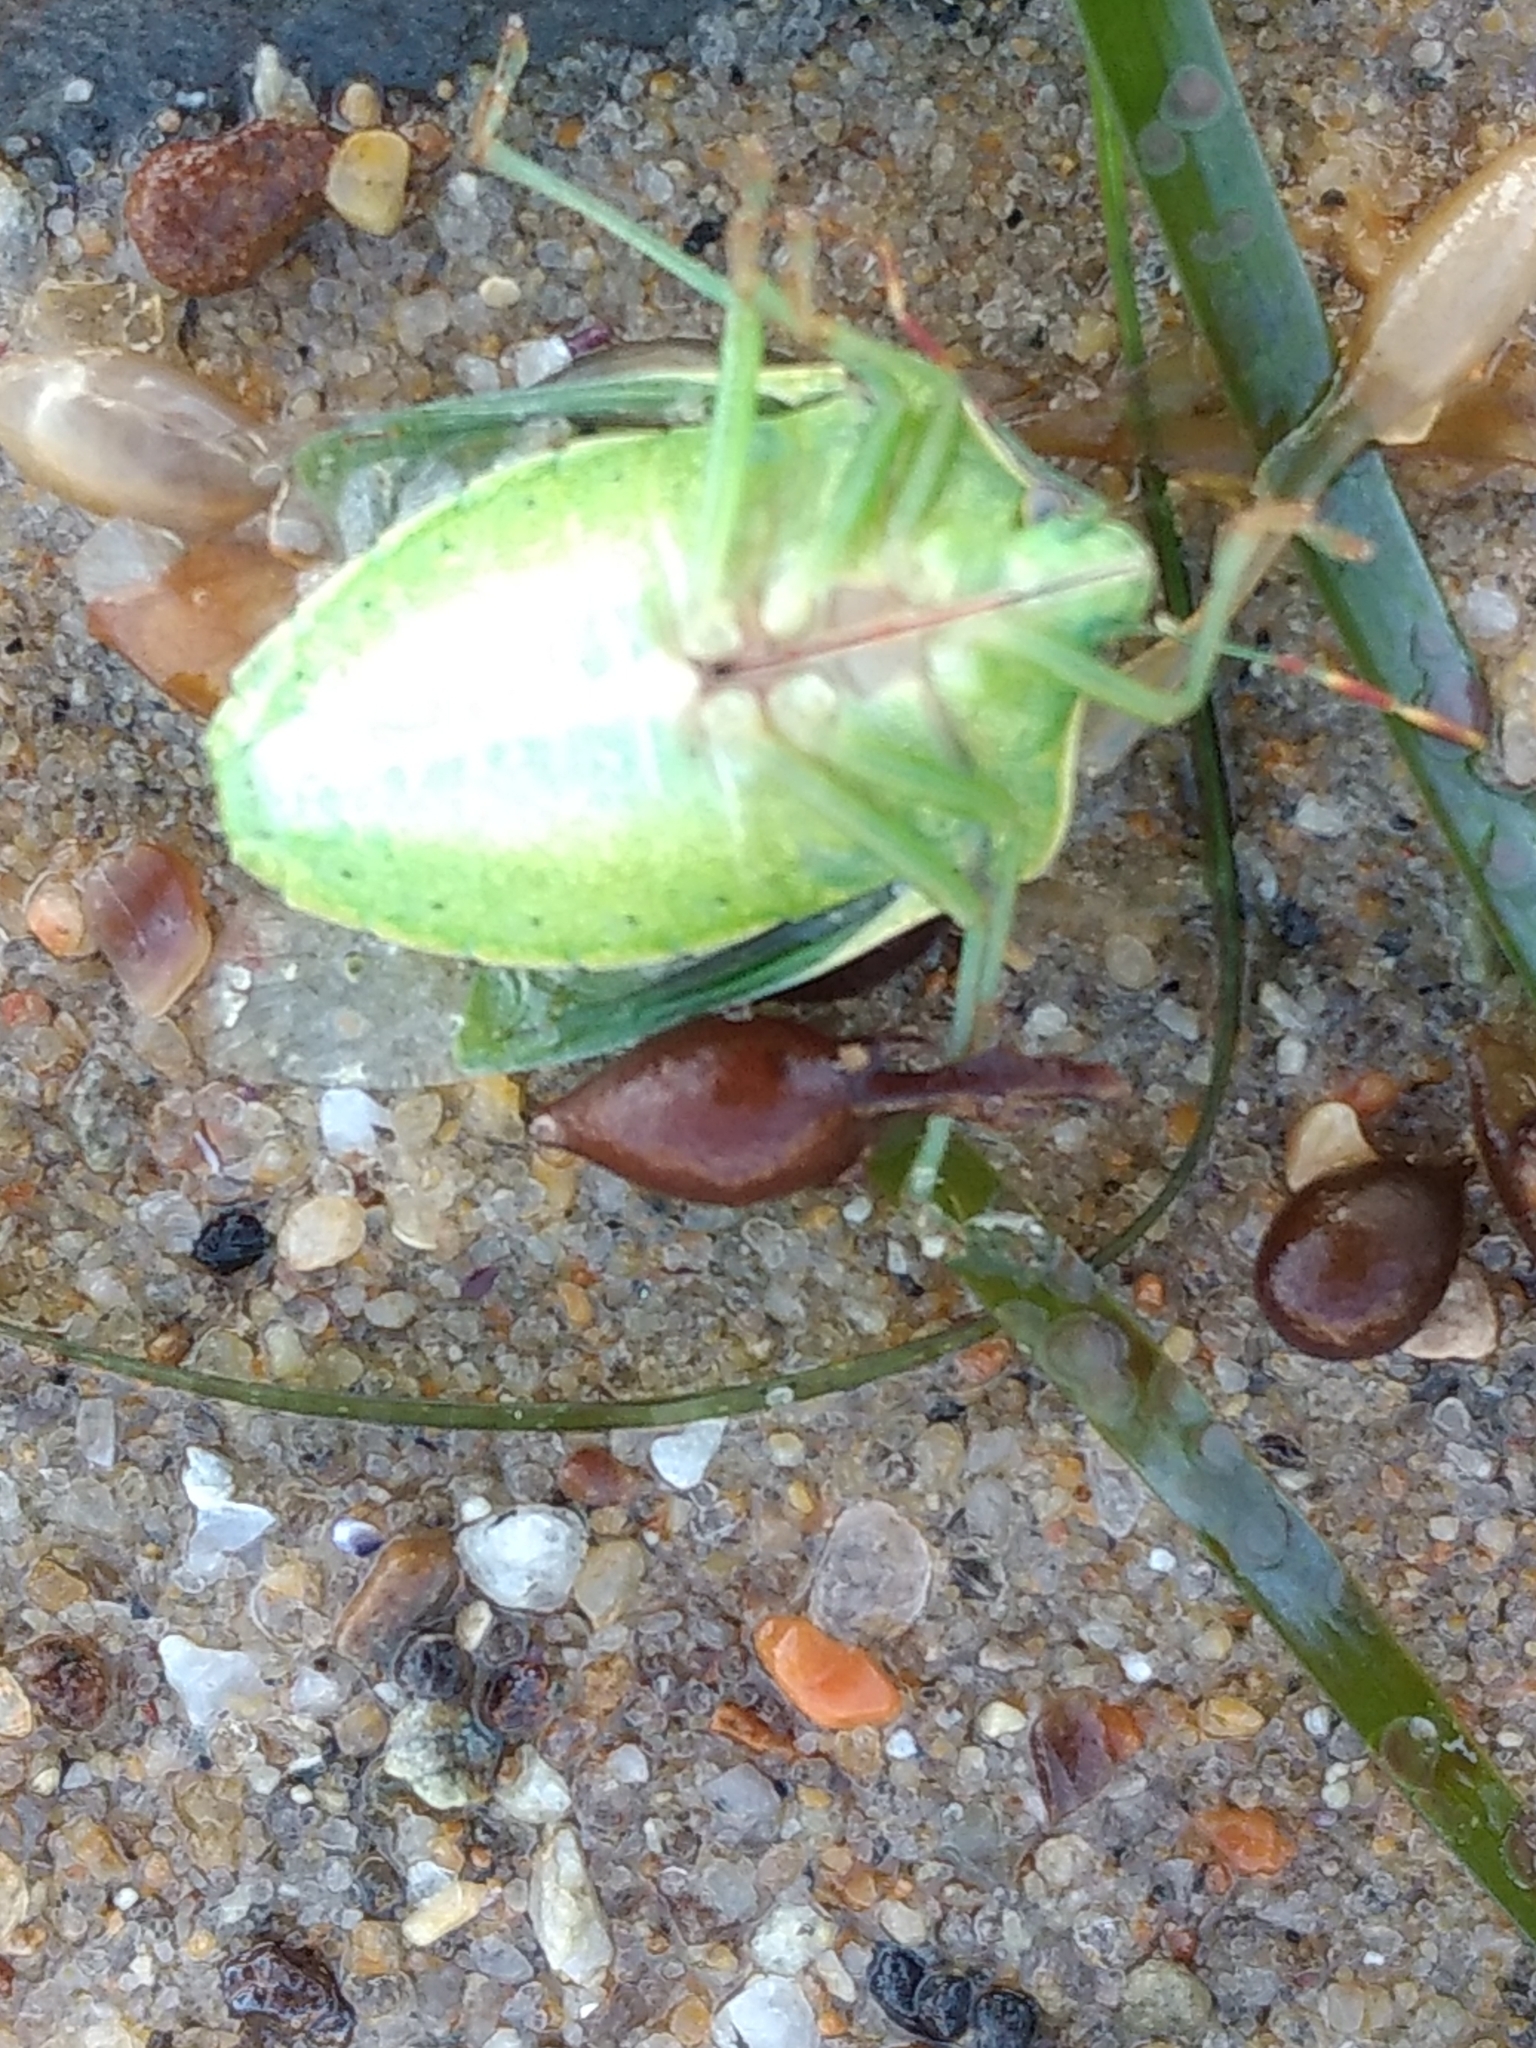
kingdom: Animalia
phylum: Arthropoda
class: Insecta
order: Hemiptera
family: Pentatomidae
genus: Nezara
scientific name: Nezara viridula
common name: Southern green stink bug
